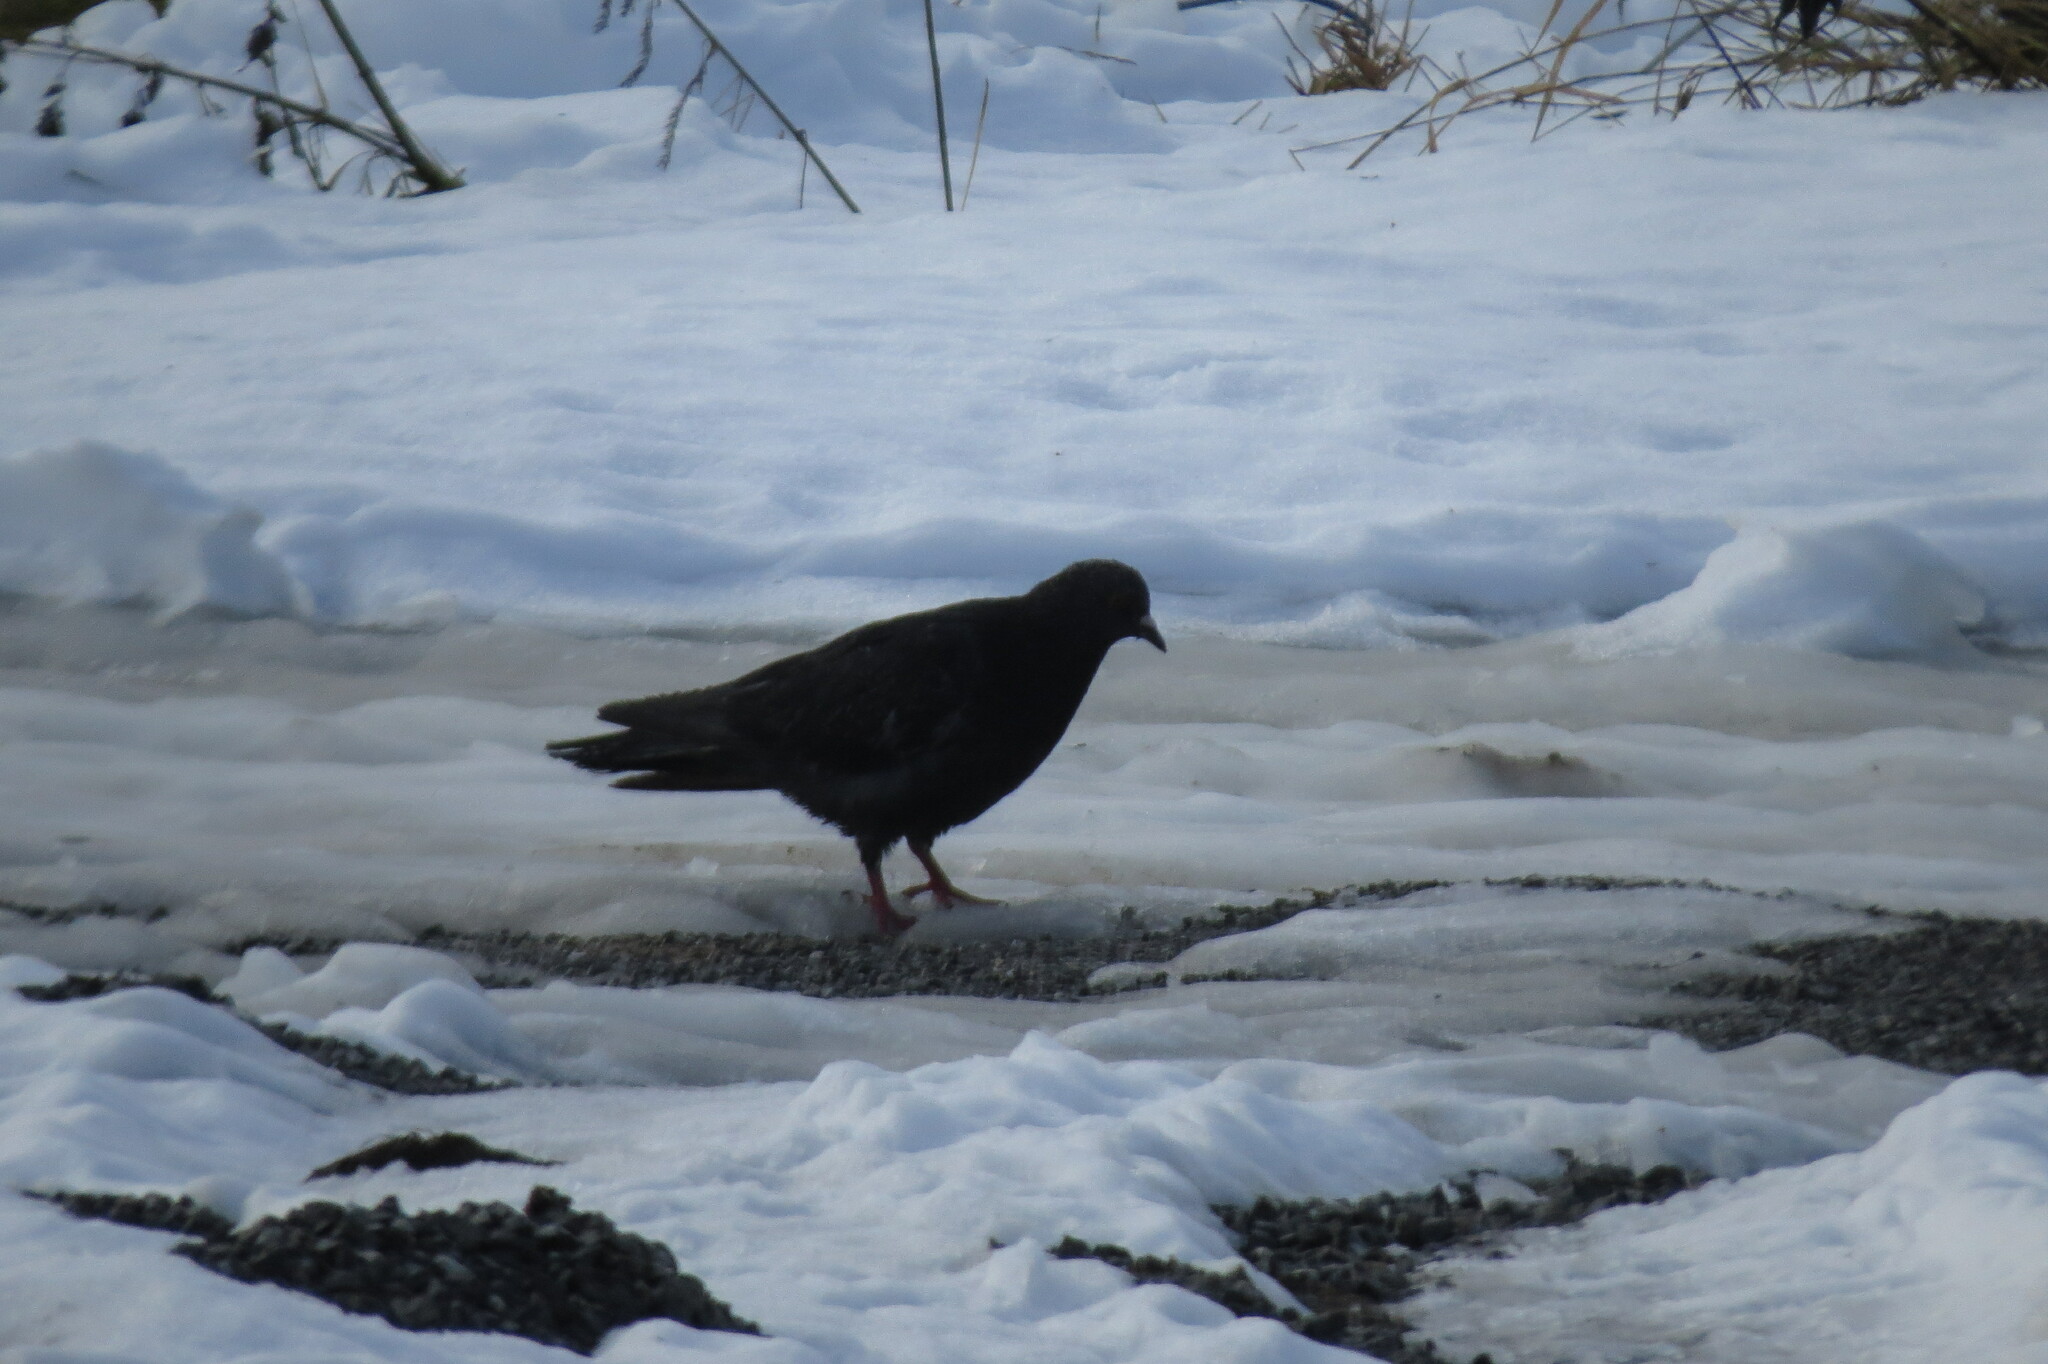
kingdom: Animalia
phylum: Chordata
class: Aves
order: Columbiformes
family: Columbidae
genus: Columba
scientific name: Columba livia
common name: Rock pigeon
